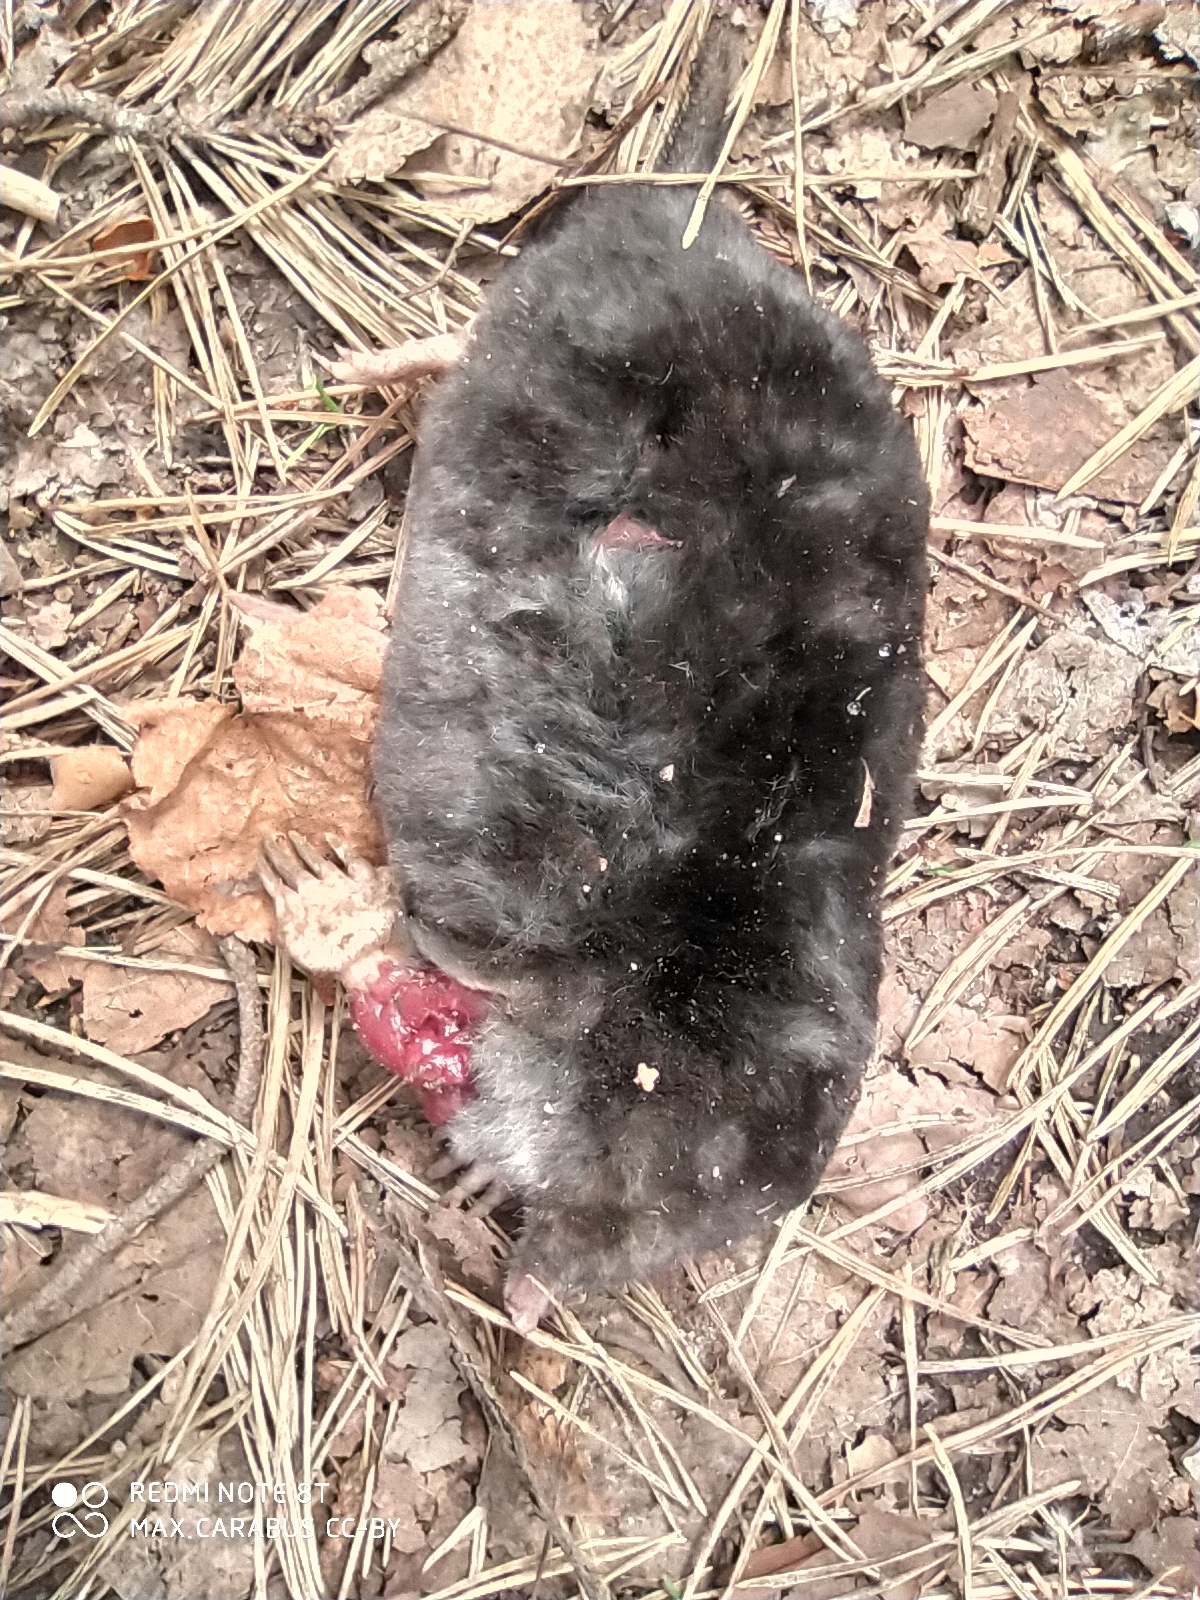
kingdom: Animalia
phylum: Chordata
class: Mammalia
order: Soricomorpha
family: Talpidae
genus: Talpa
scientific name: Talpa europaea
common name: European mole
